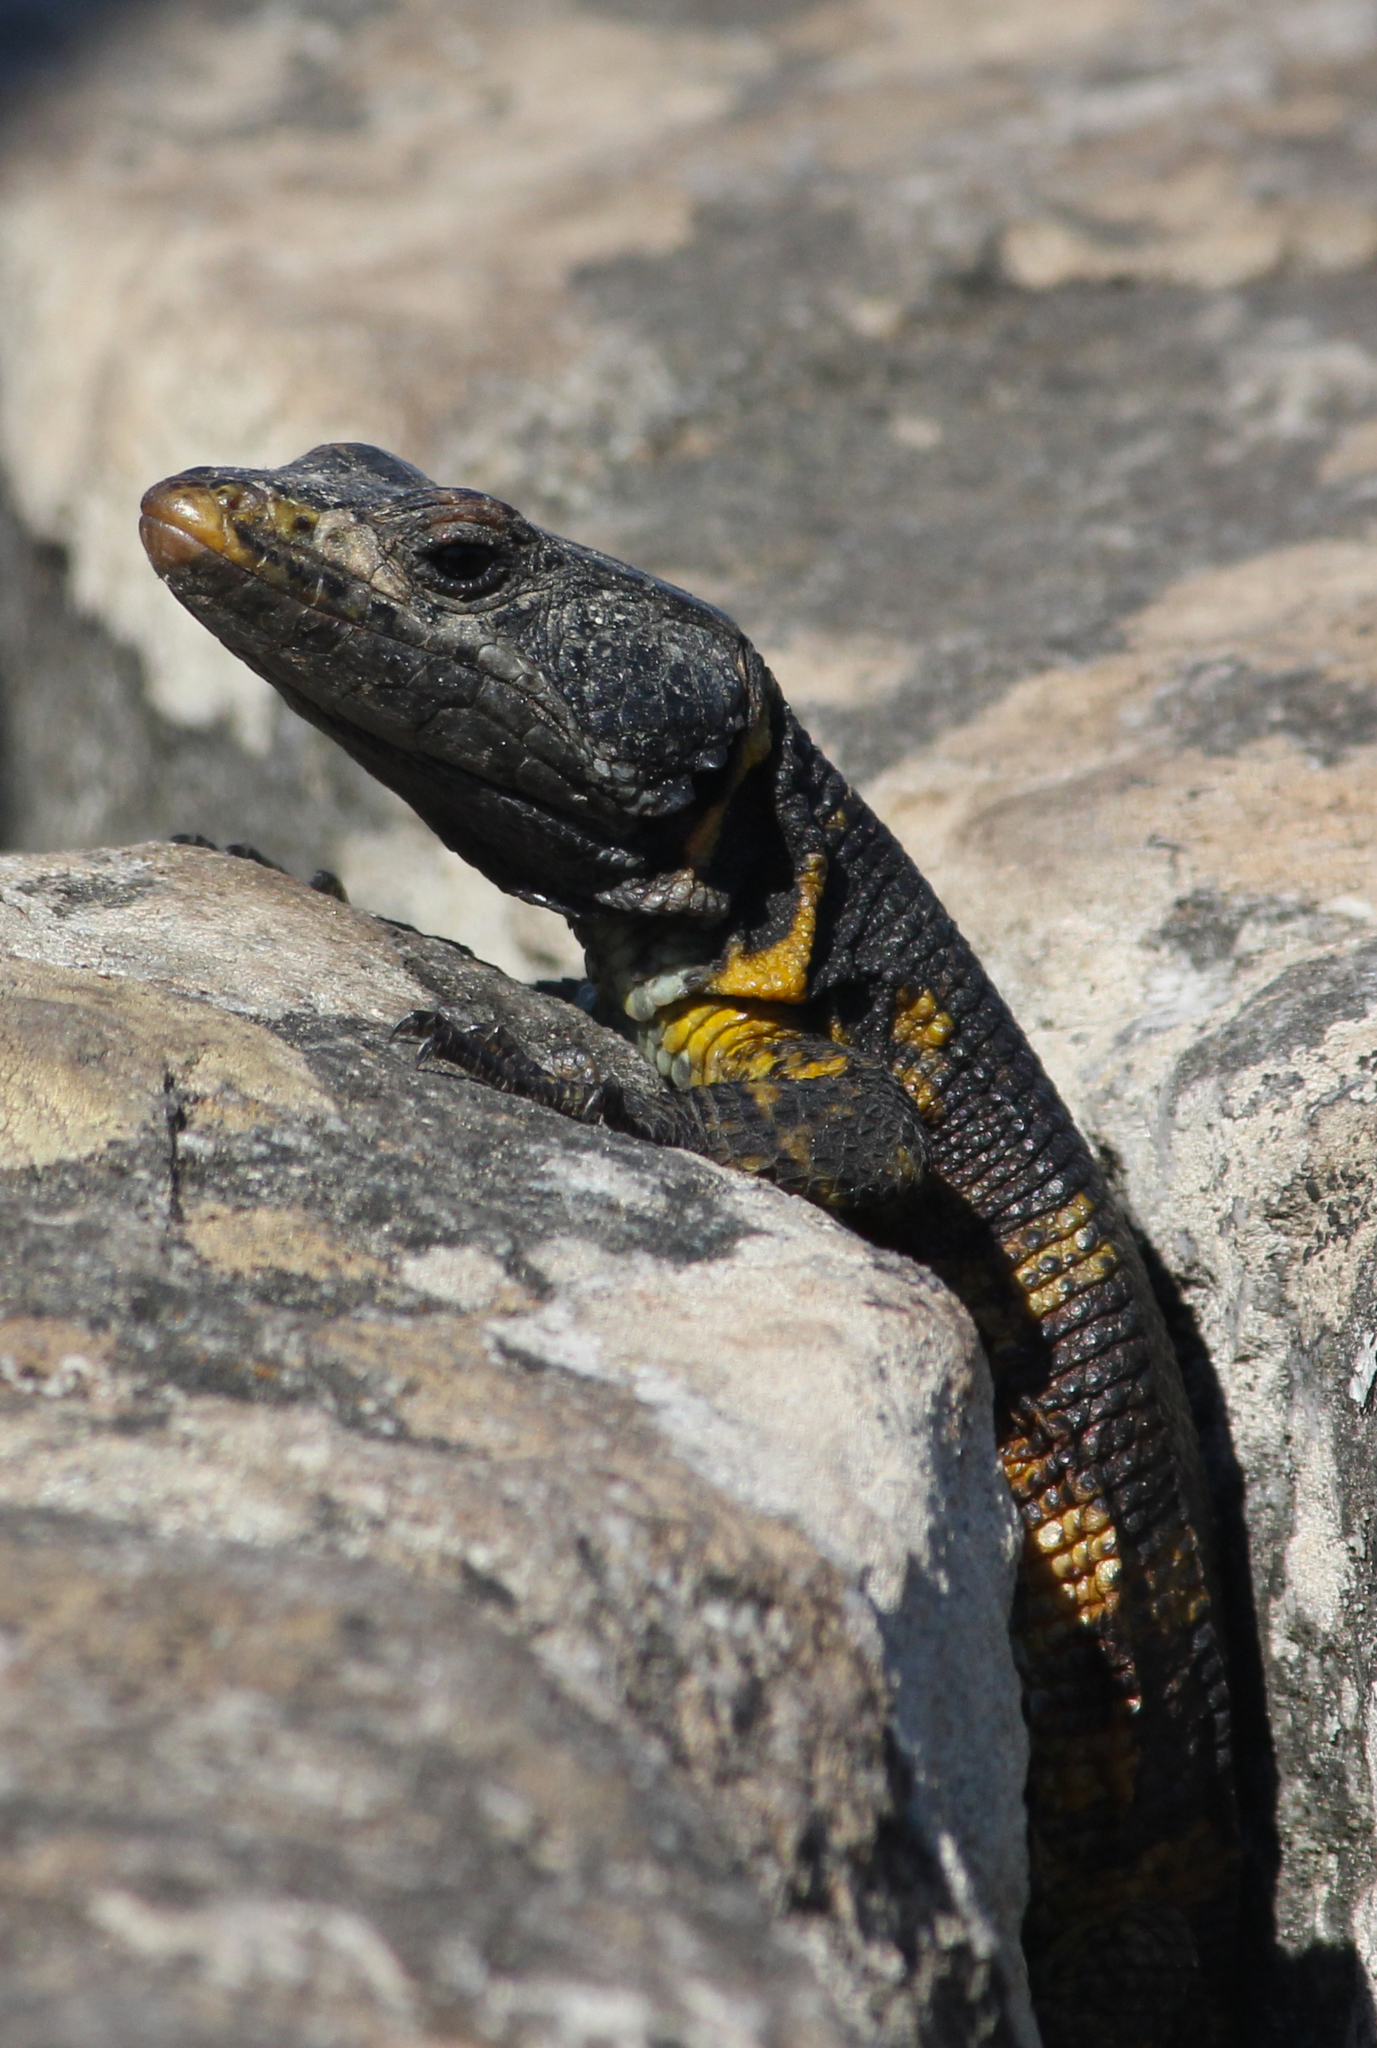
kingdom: Animalia
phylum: Chordata
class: Squamata
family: Cordylidae
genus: Pseudocordylus
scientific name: Pseudocordylus microlepidotus
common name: Cape crag lizard
